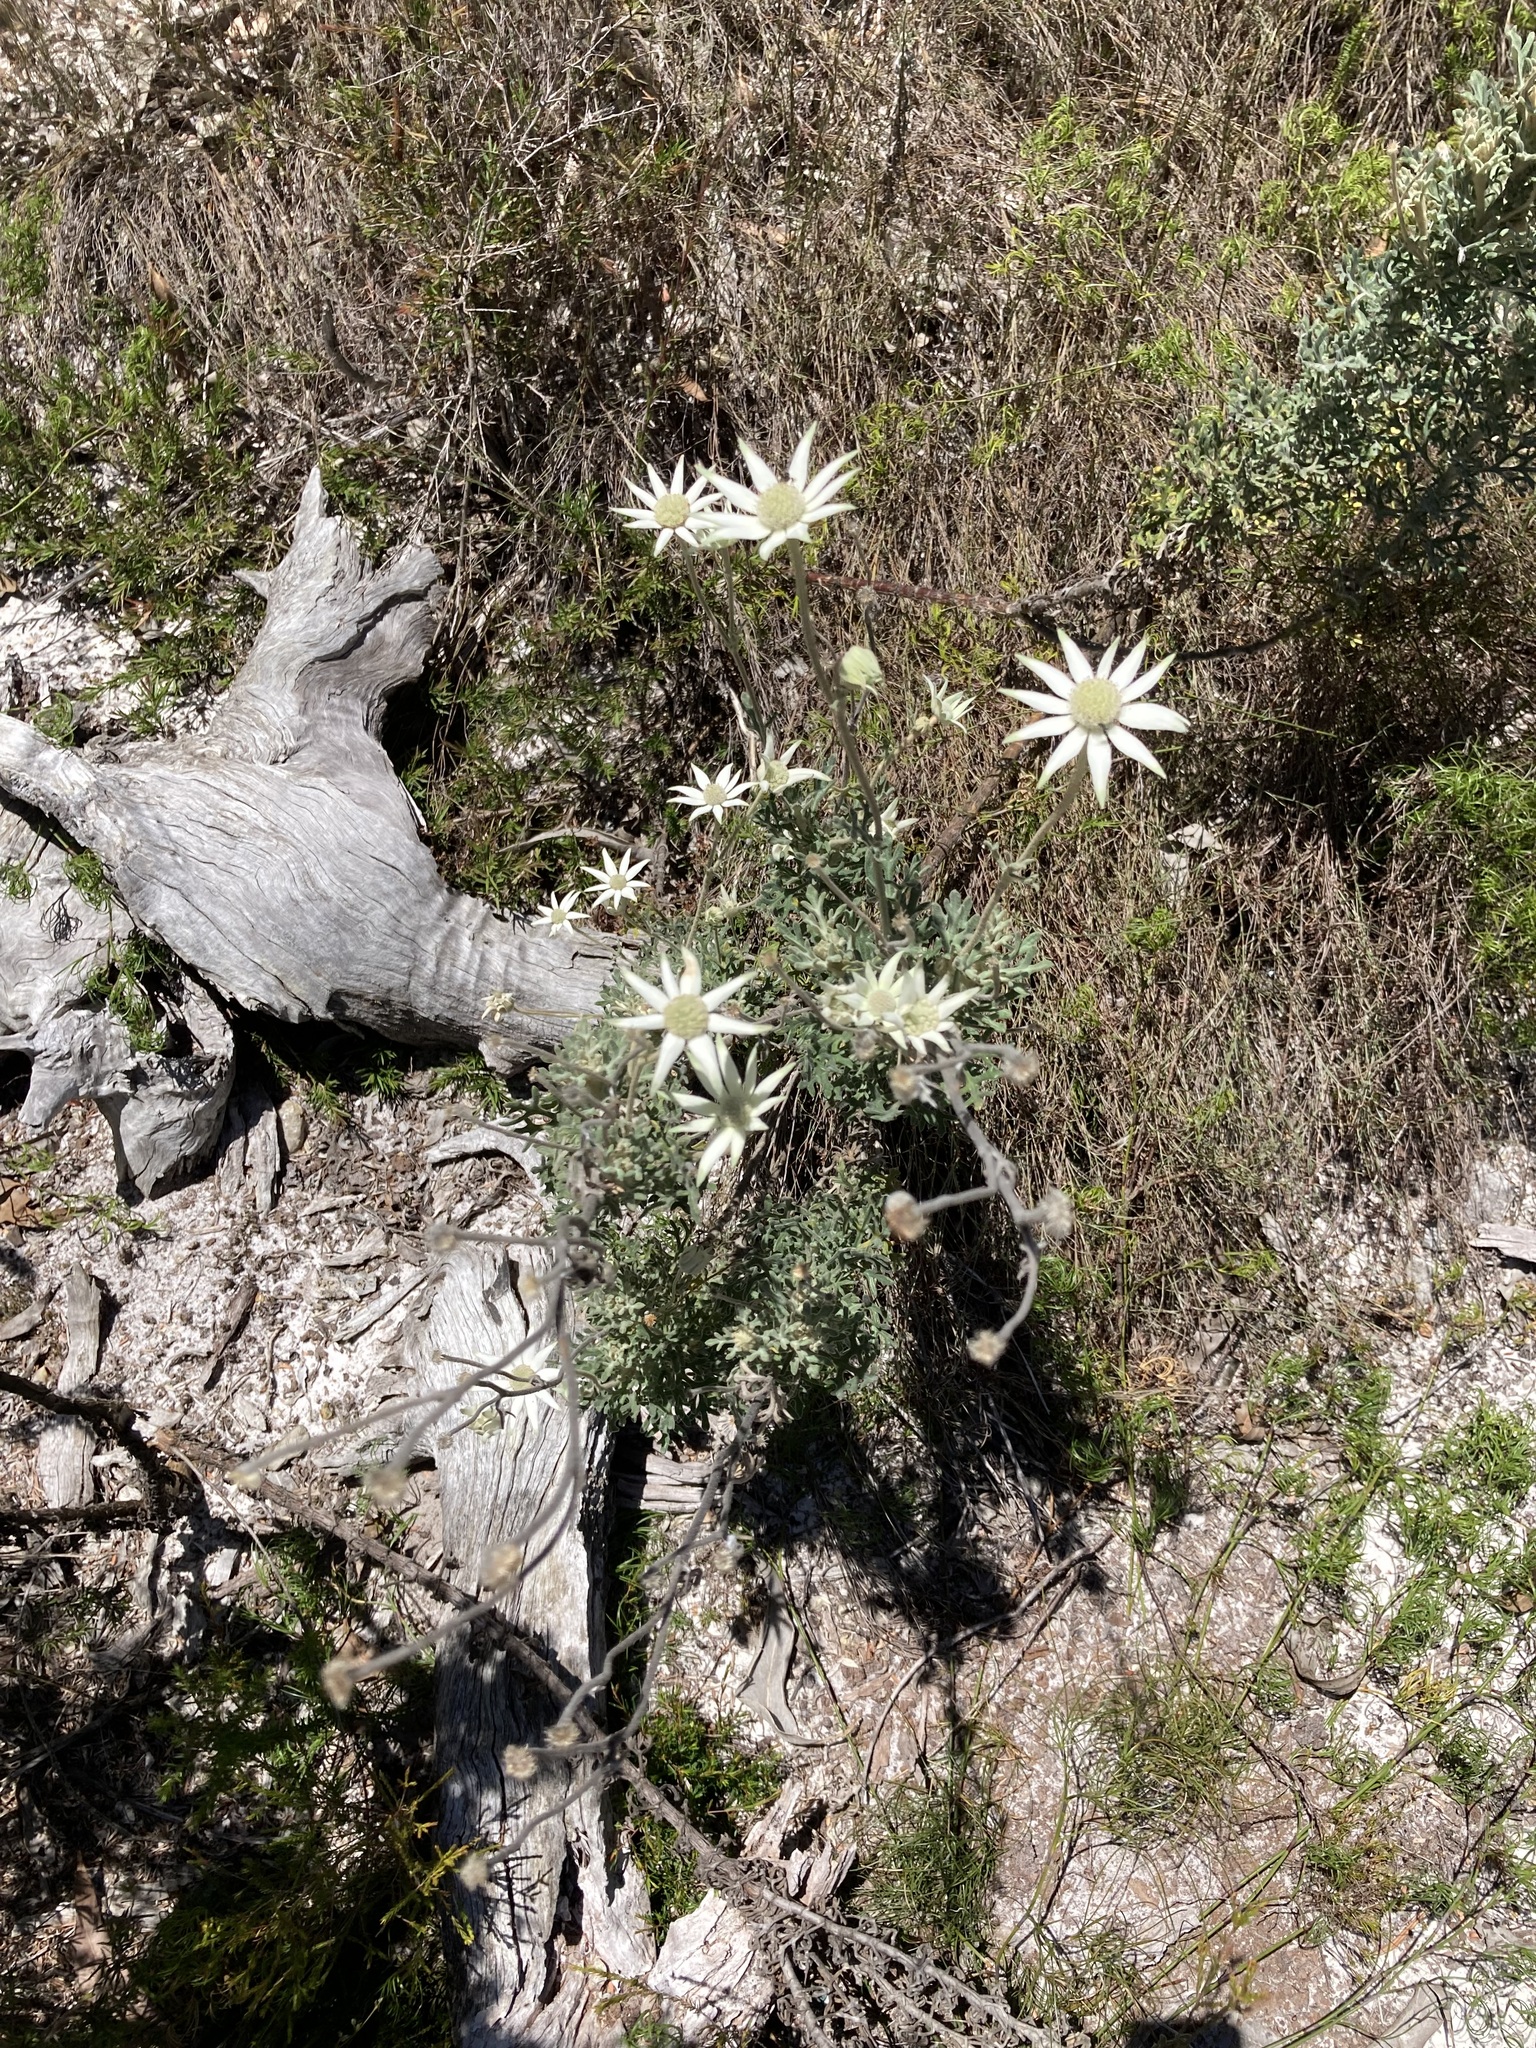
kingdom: Plantae
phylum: Tracheophyta
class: Magnoliopsida
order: Apiales
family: Apiaceae
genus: Actinotus
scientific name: Actinotus helianthi
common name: Flannel-flower
